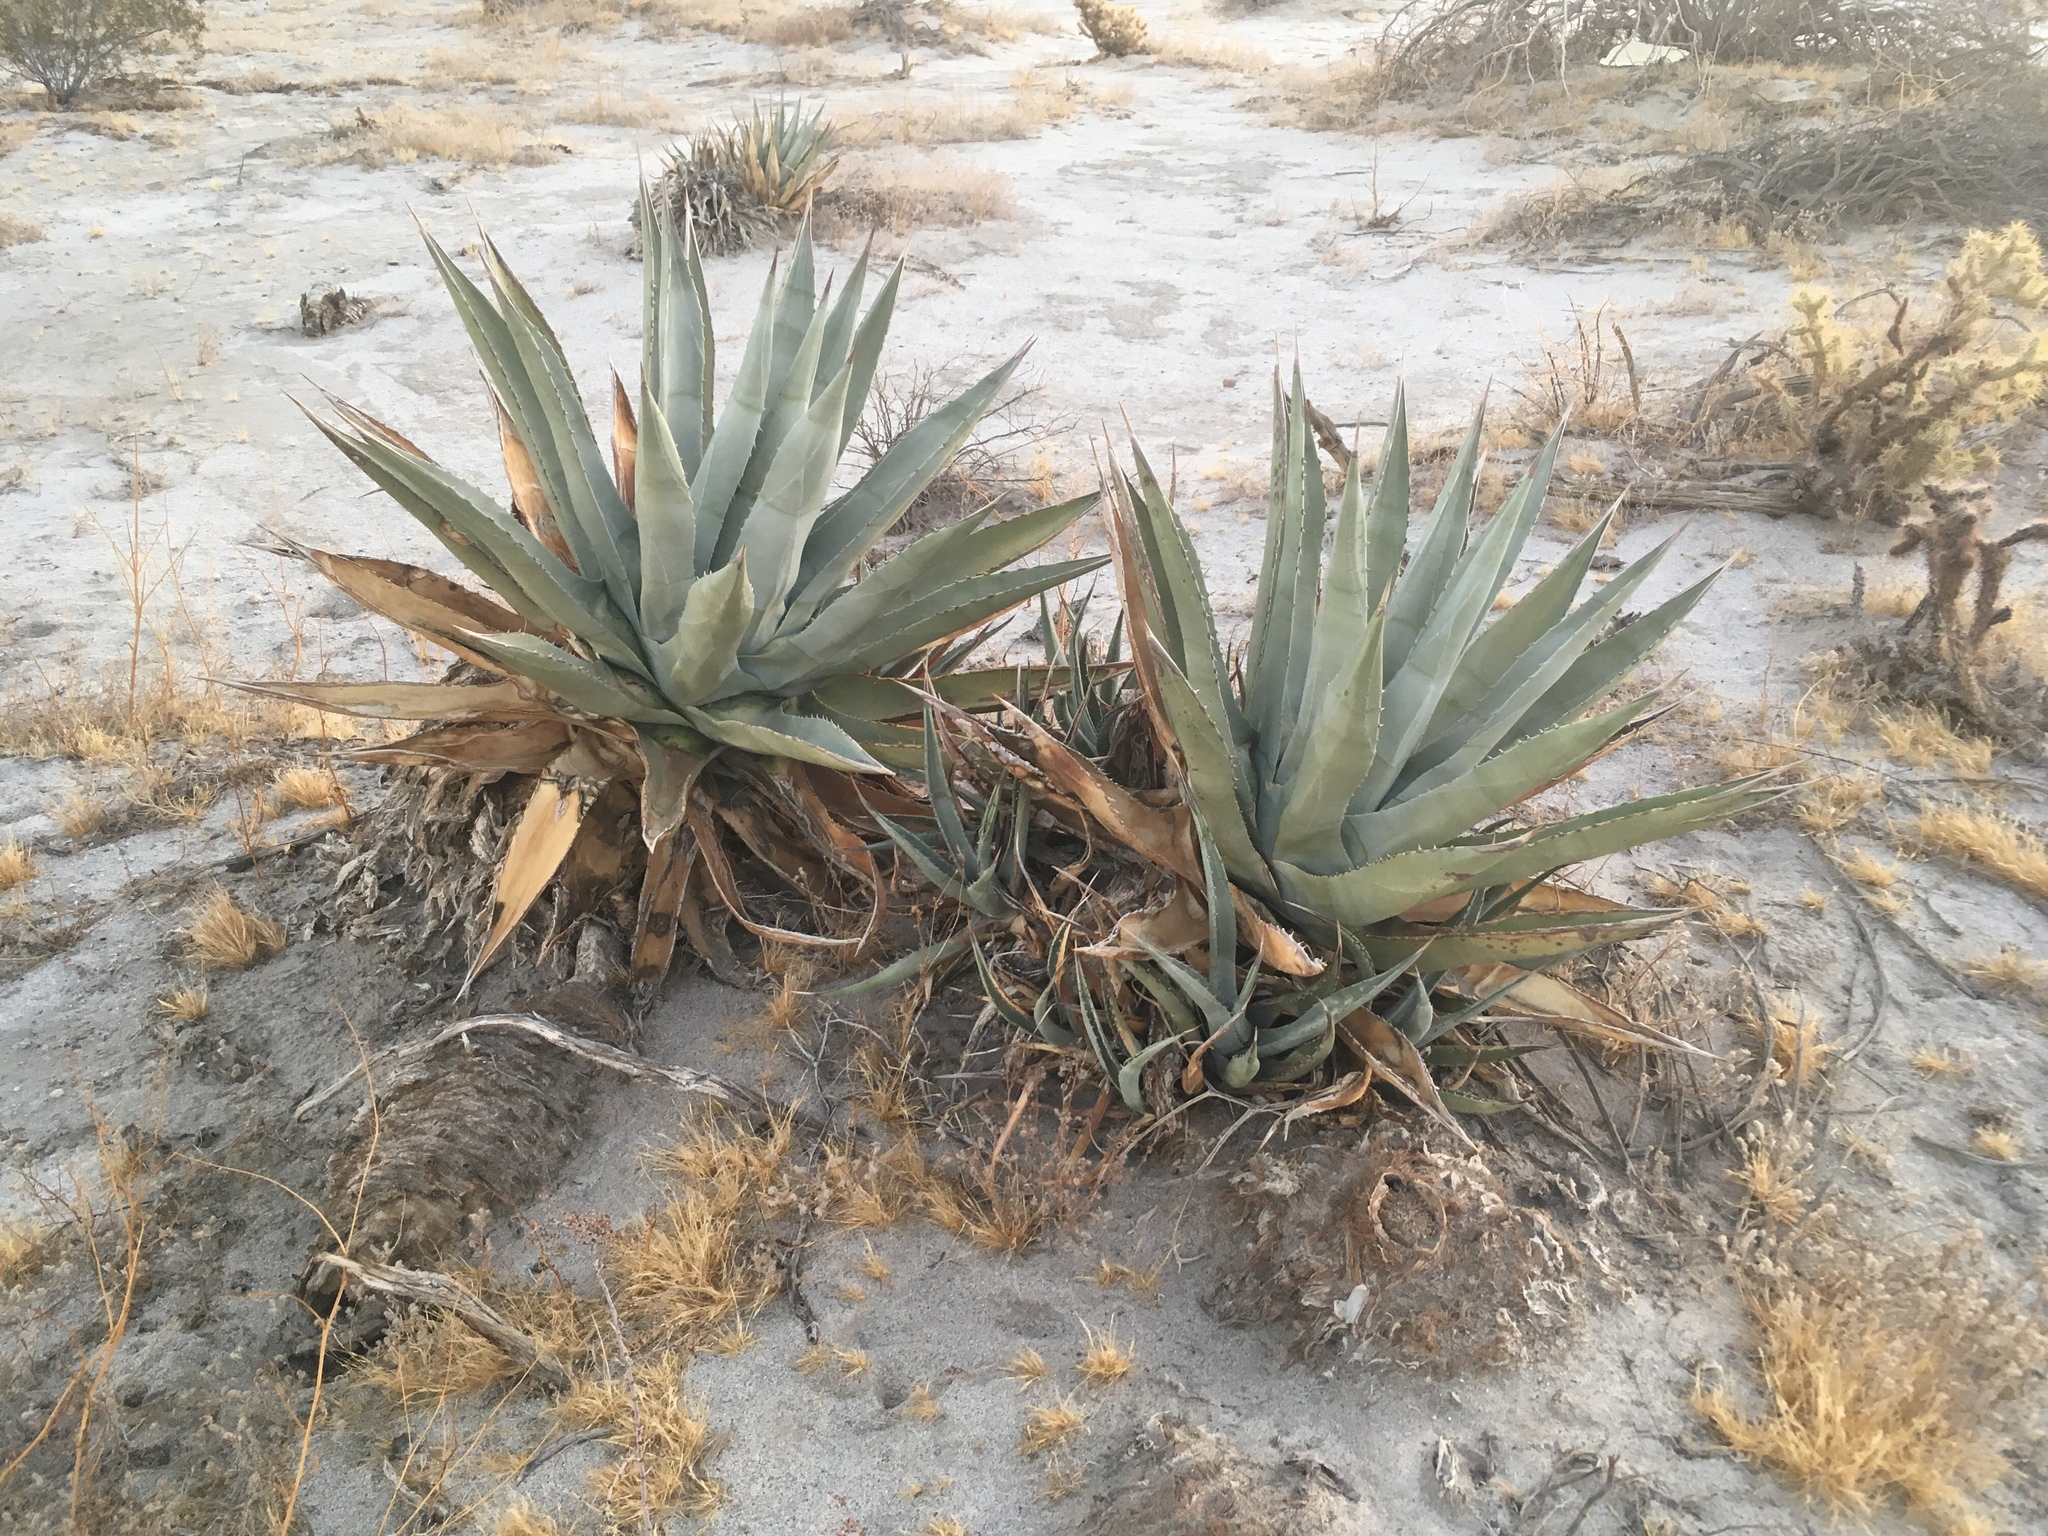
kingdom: Plantae
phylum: Tracheophyta
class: Liliopsida
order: Asparagales
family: Asparagaceae
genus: Agave
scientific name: Agave deserti
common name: Desert agave
